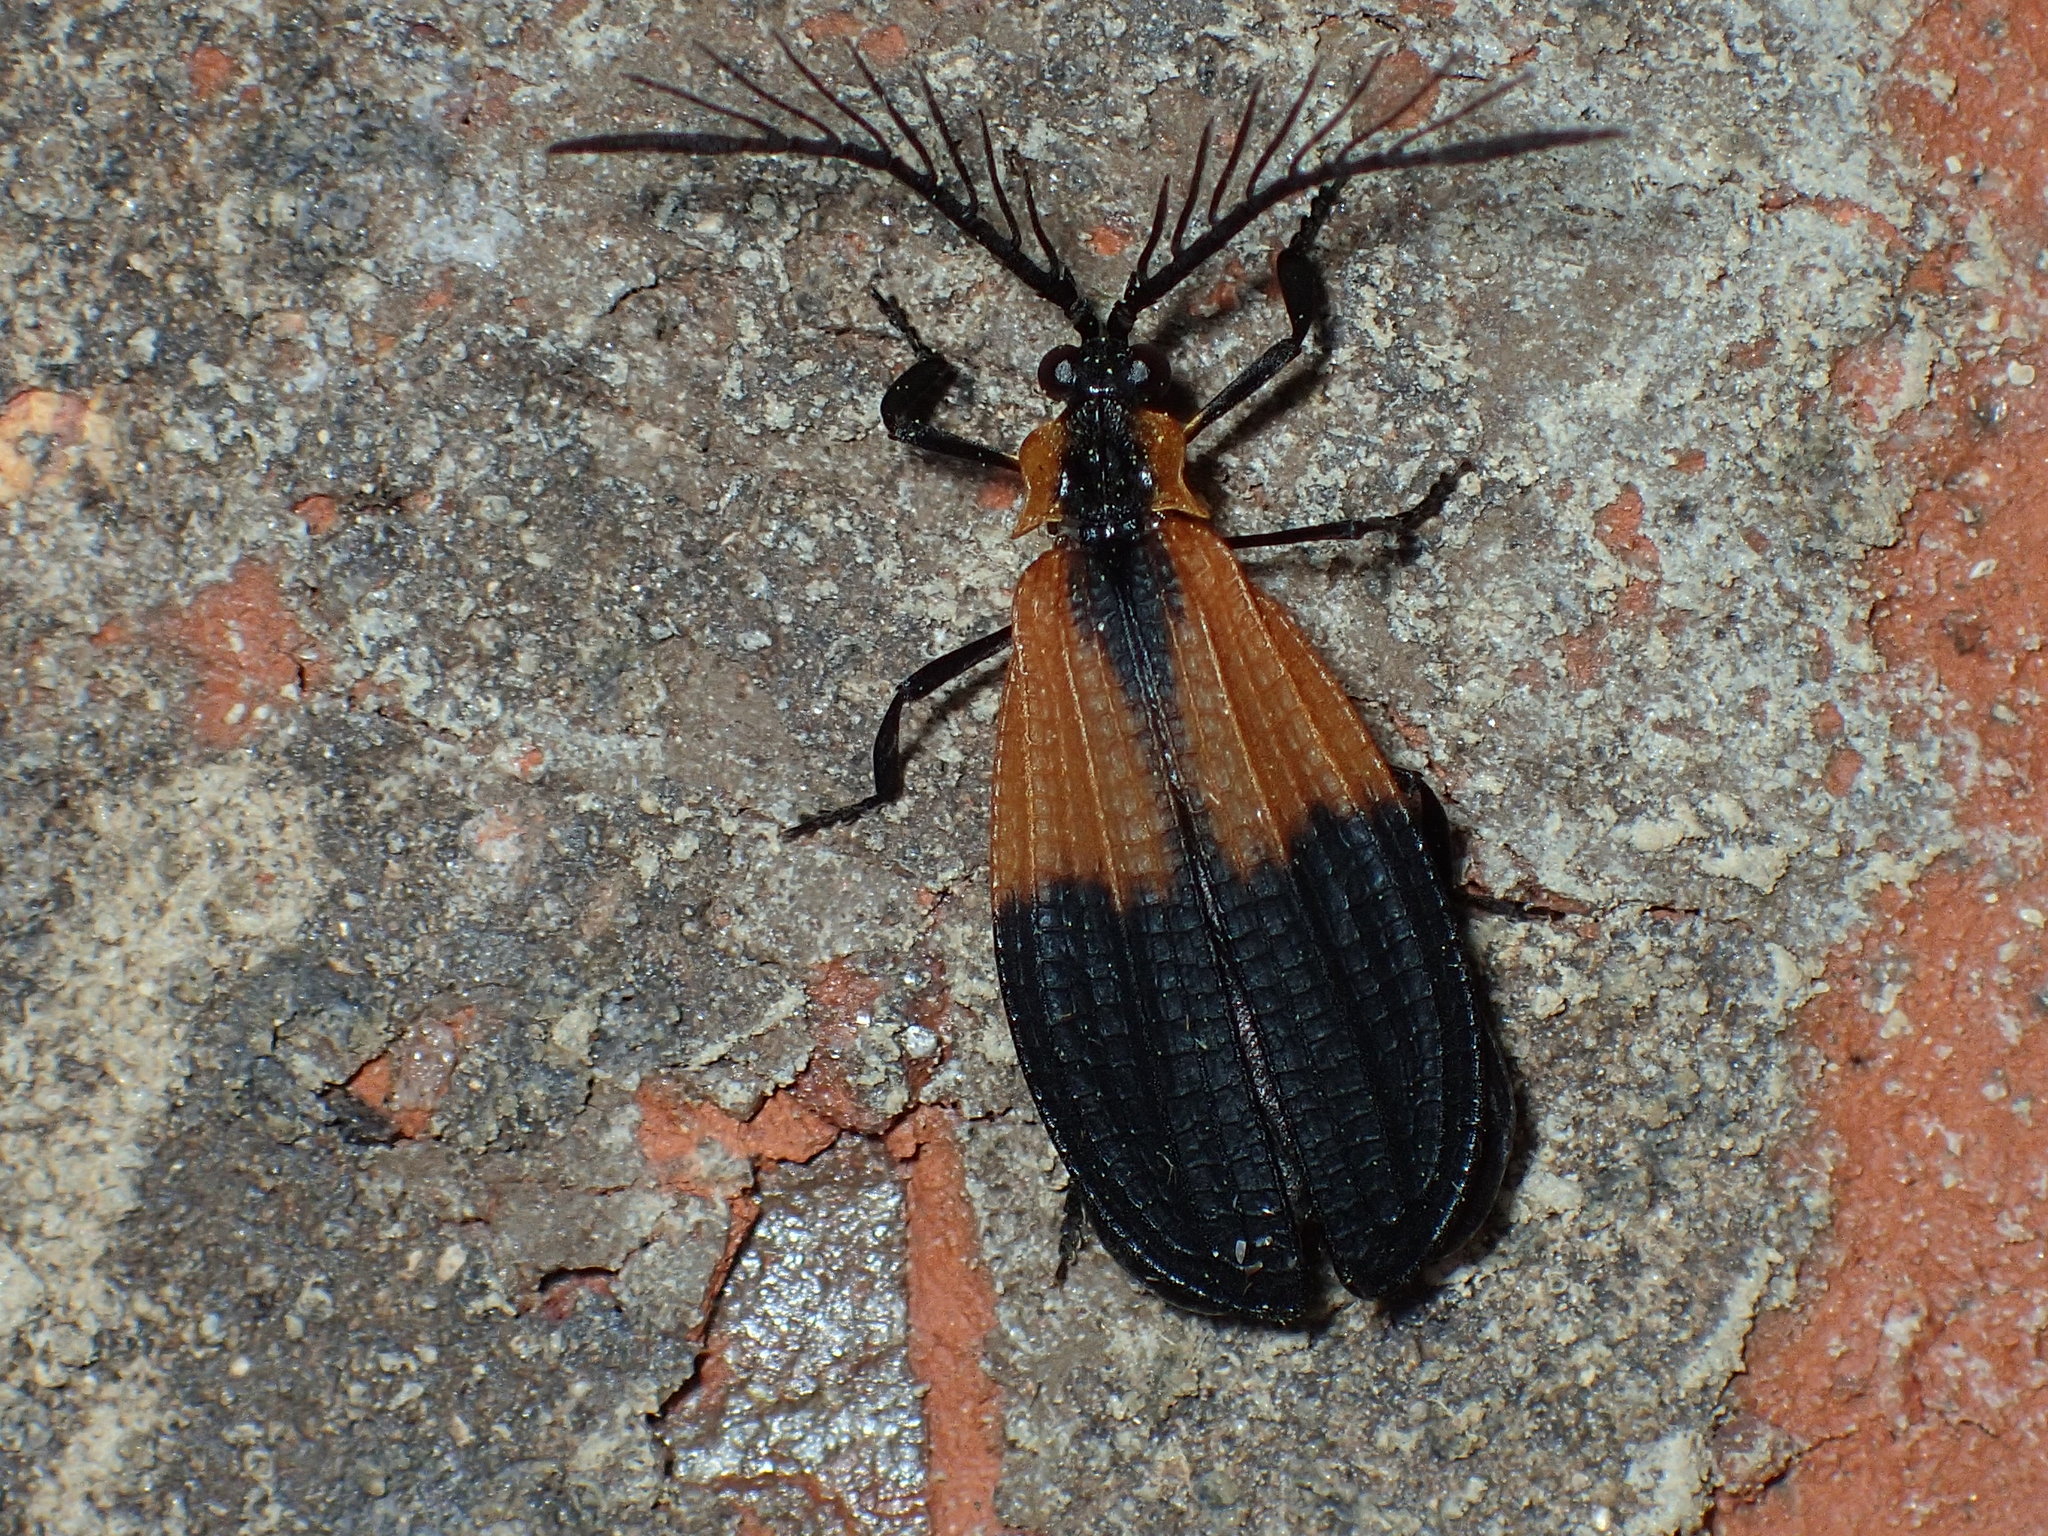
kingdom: Animalia
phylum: Arthropoda
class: Insecta
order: Coleoptera
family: Lycidae
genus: Caenia
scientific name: Caenia dimidiata
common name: Terminal net-winged beetle
